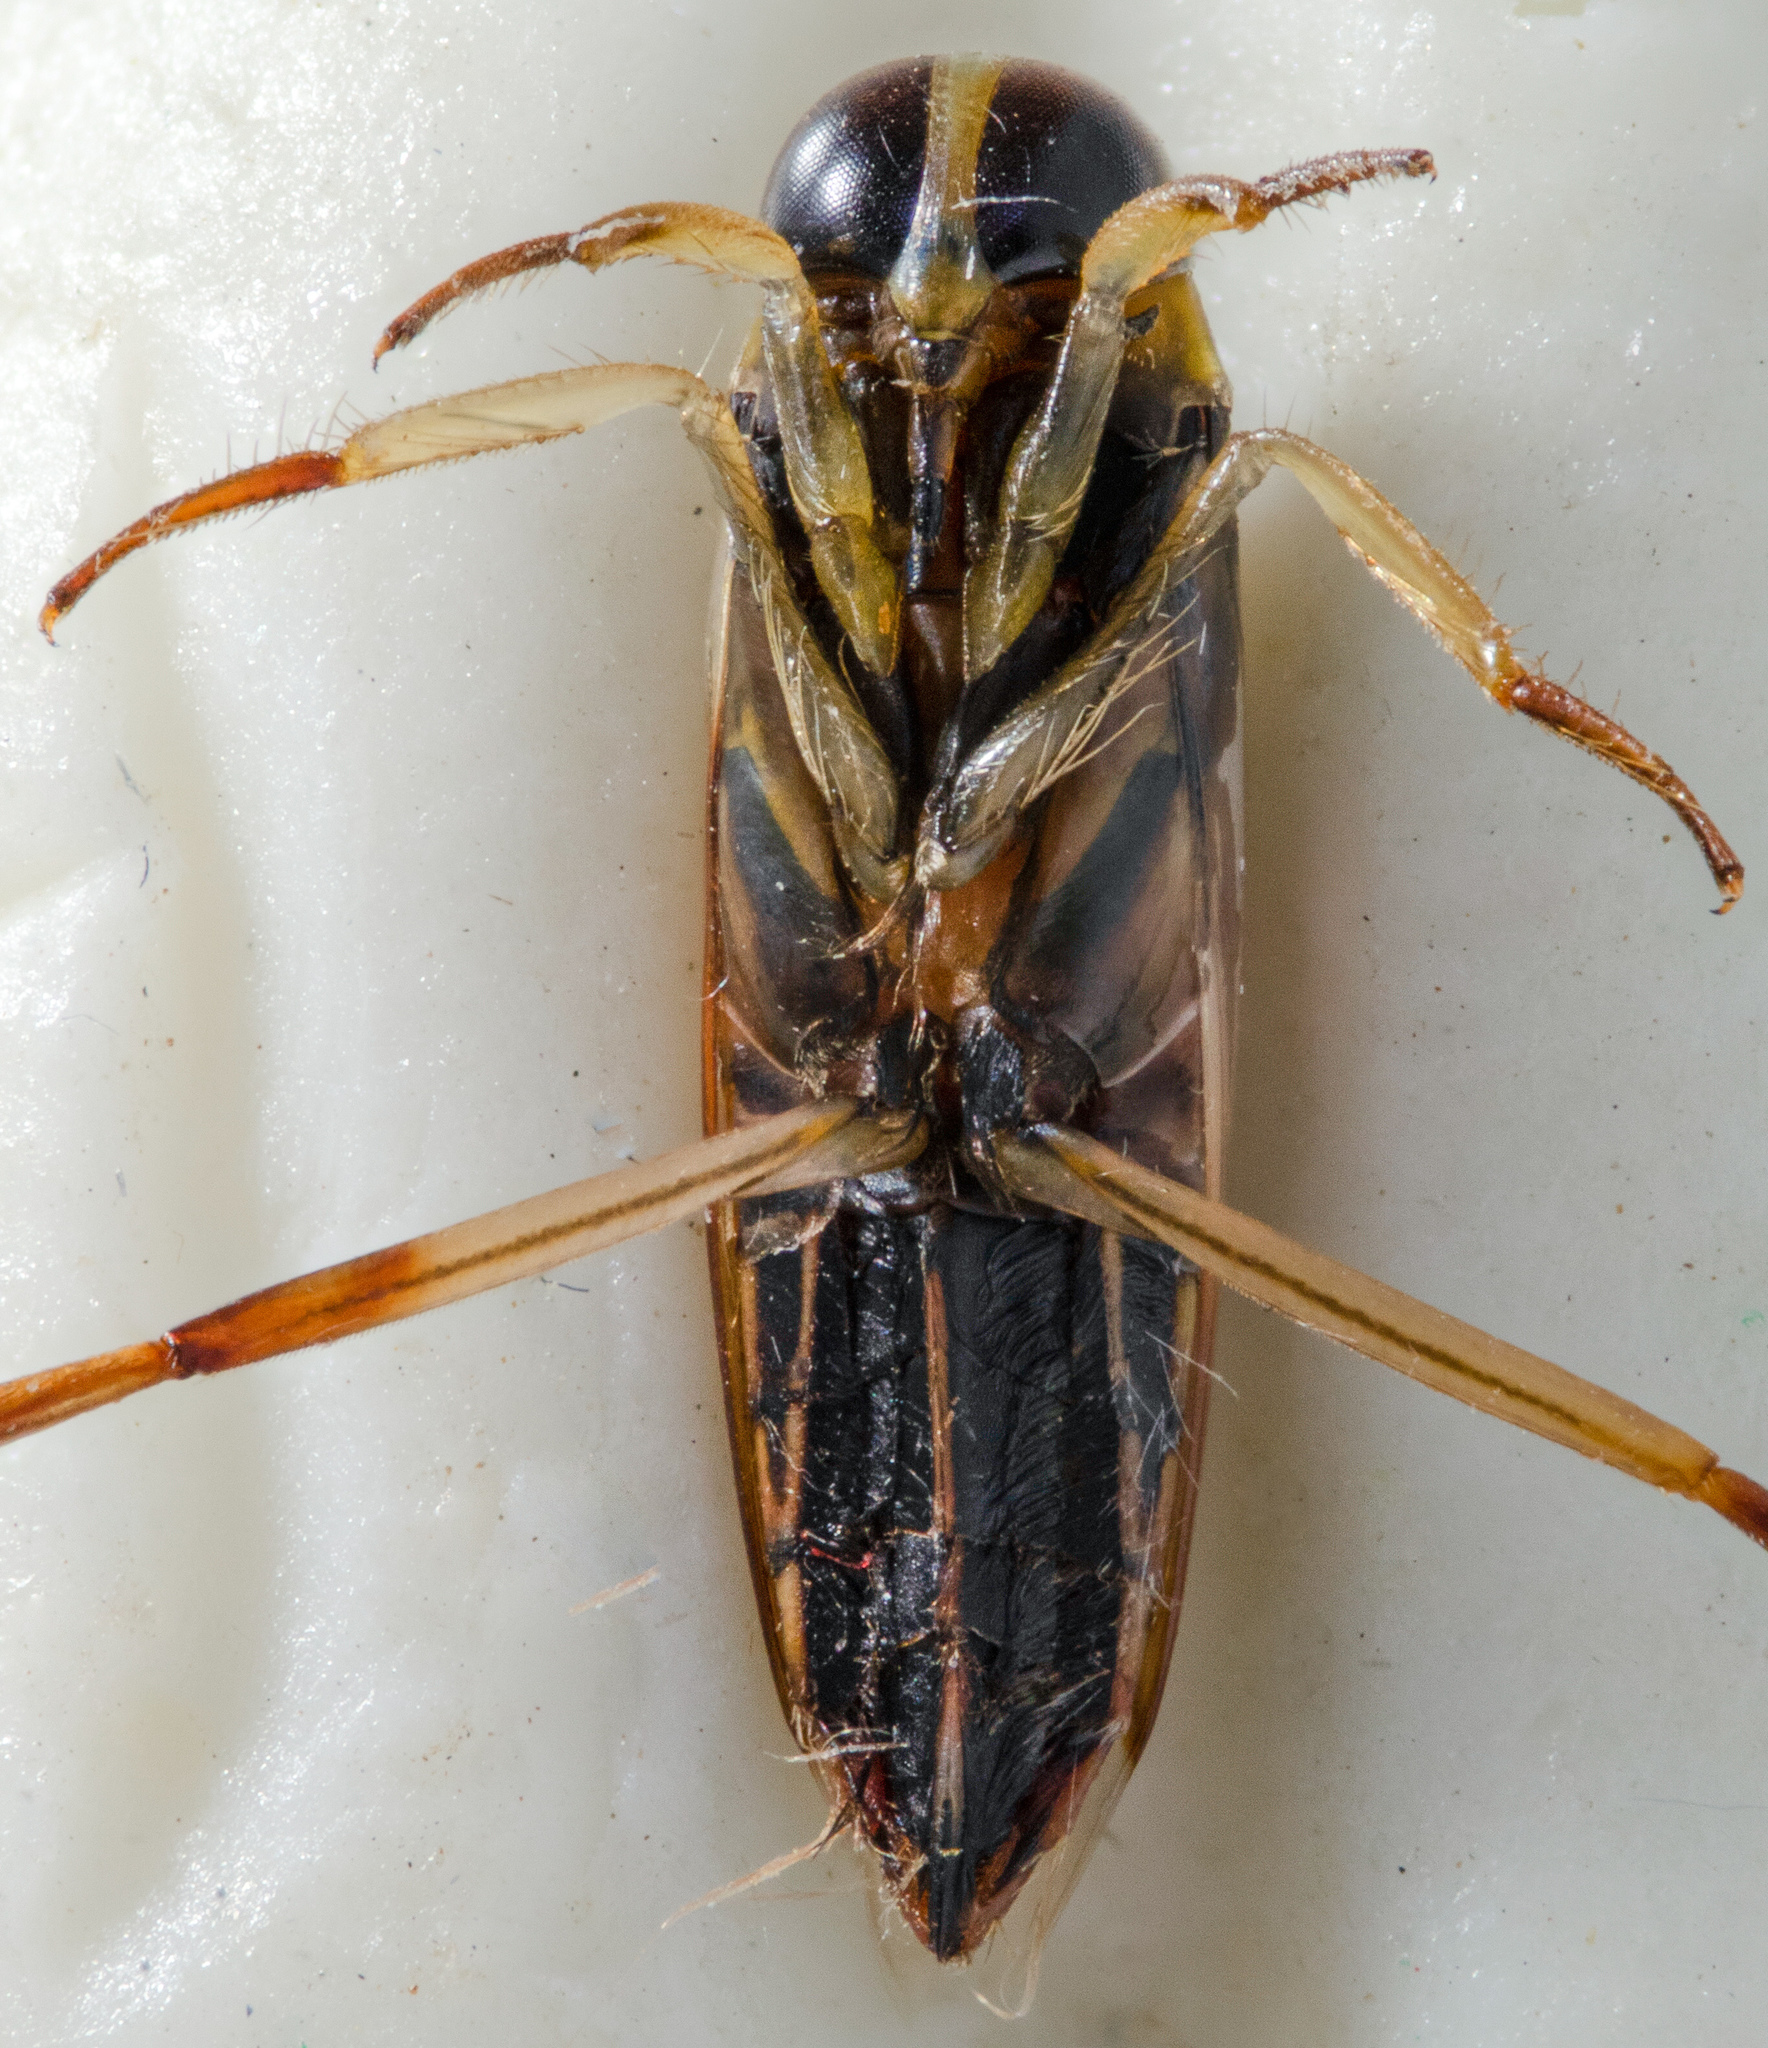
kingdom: Animalia
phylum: Arthropoda
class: Insecta
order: Hemiptera
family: Notonectidae
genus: Buenoa
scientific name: Buenoa scimitra
